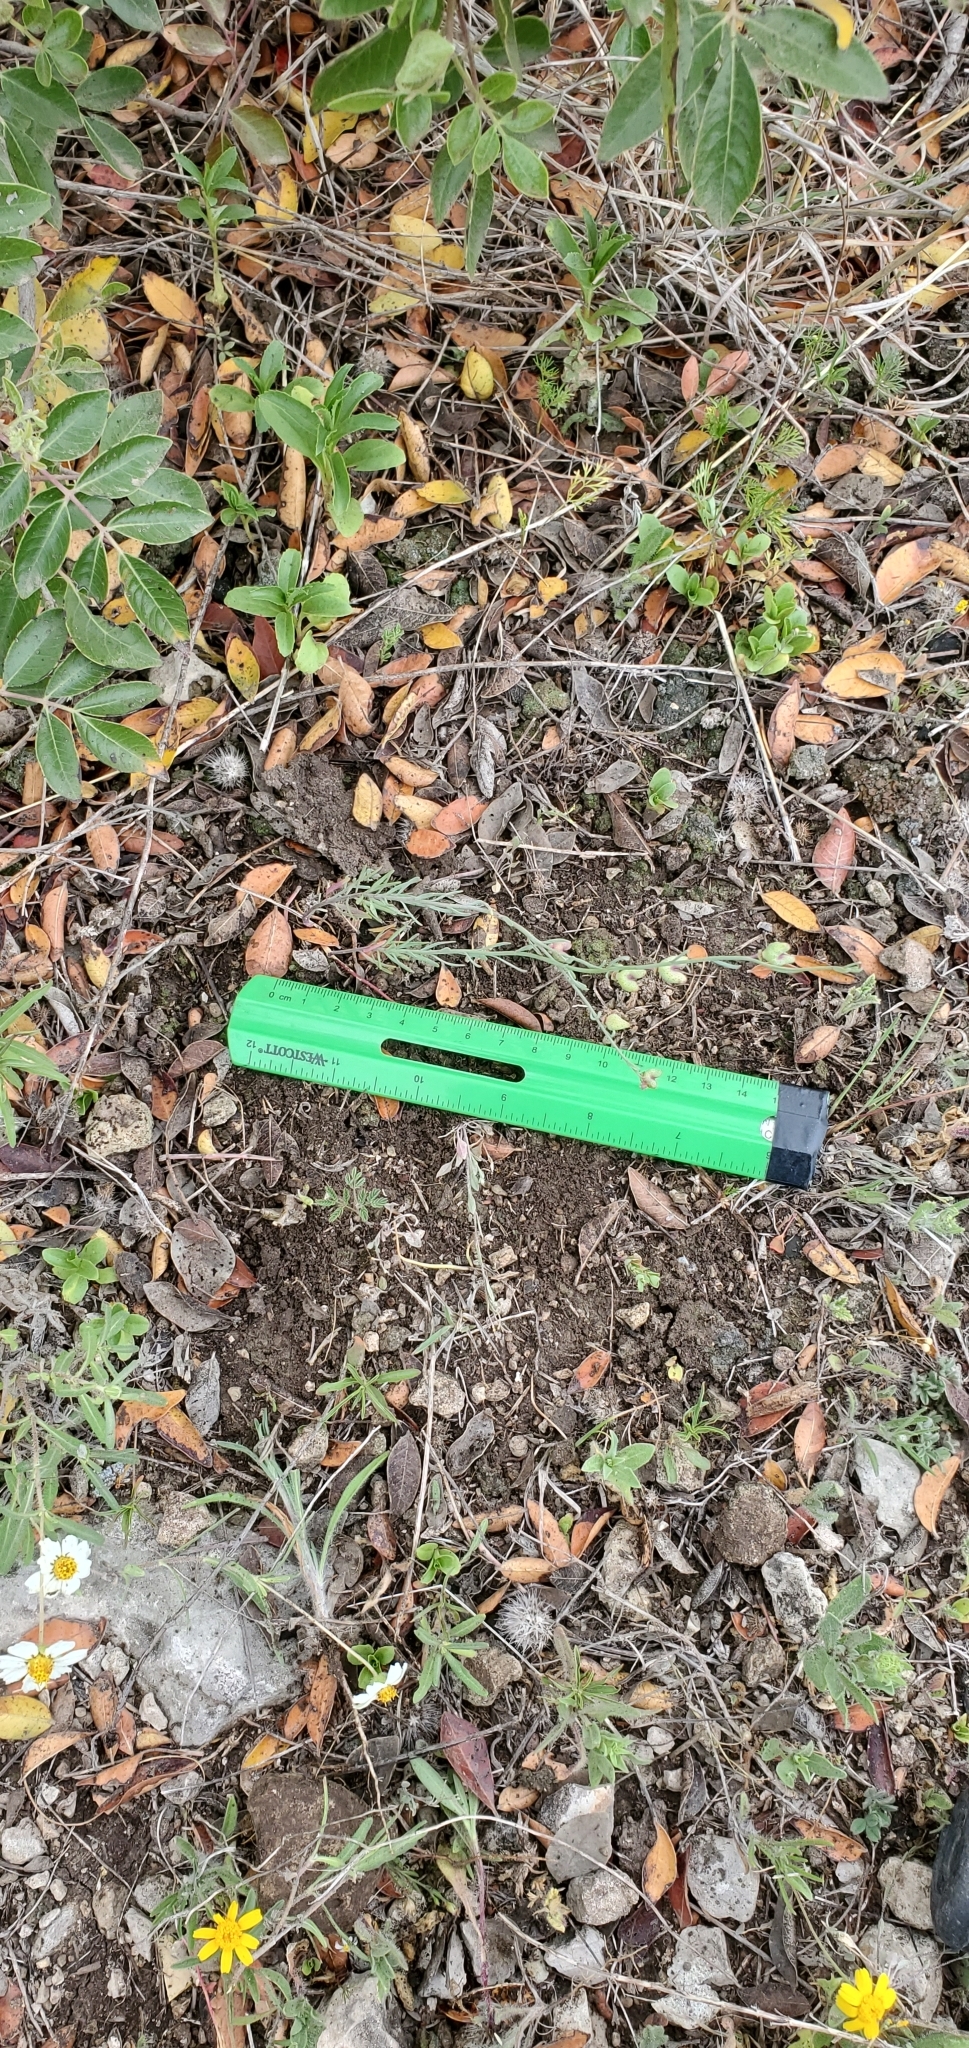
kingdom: Plantae
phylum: Tracheophyta
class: Magnoliopsida
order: Sapindales
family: Rutaceae
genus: Thamnosma
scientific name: Thamnosma texana
